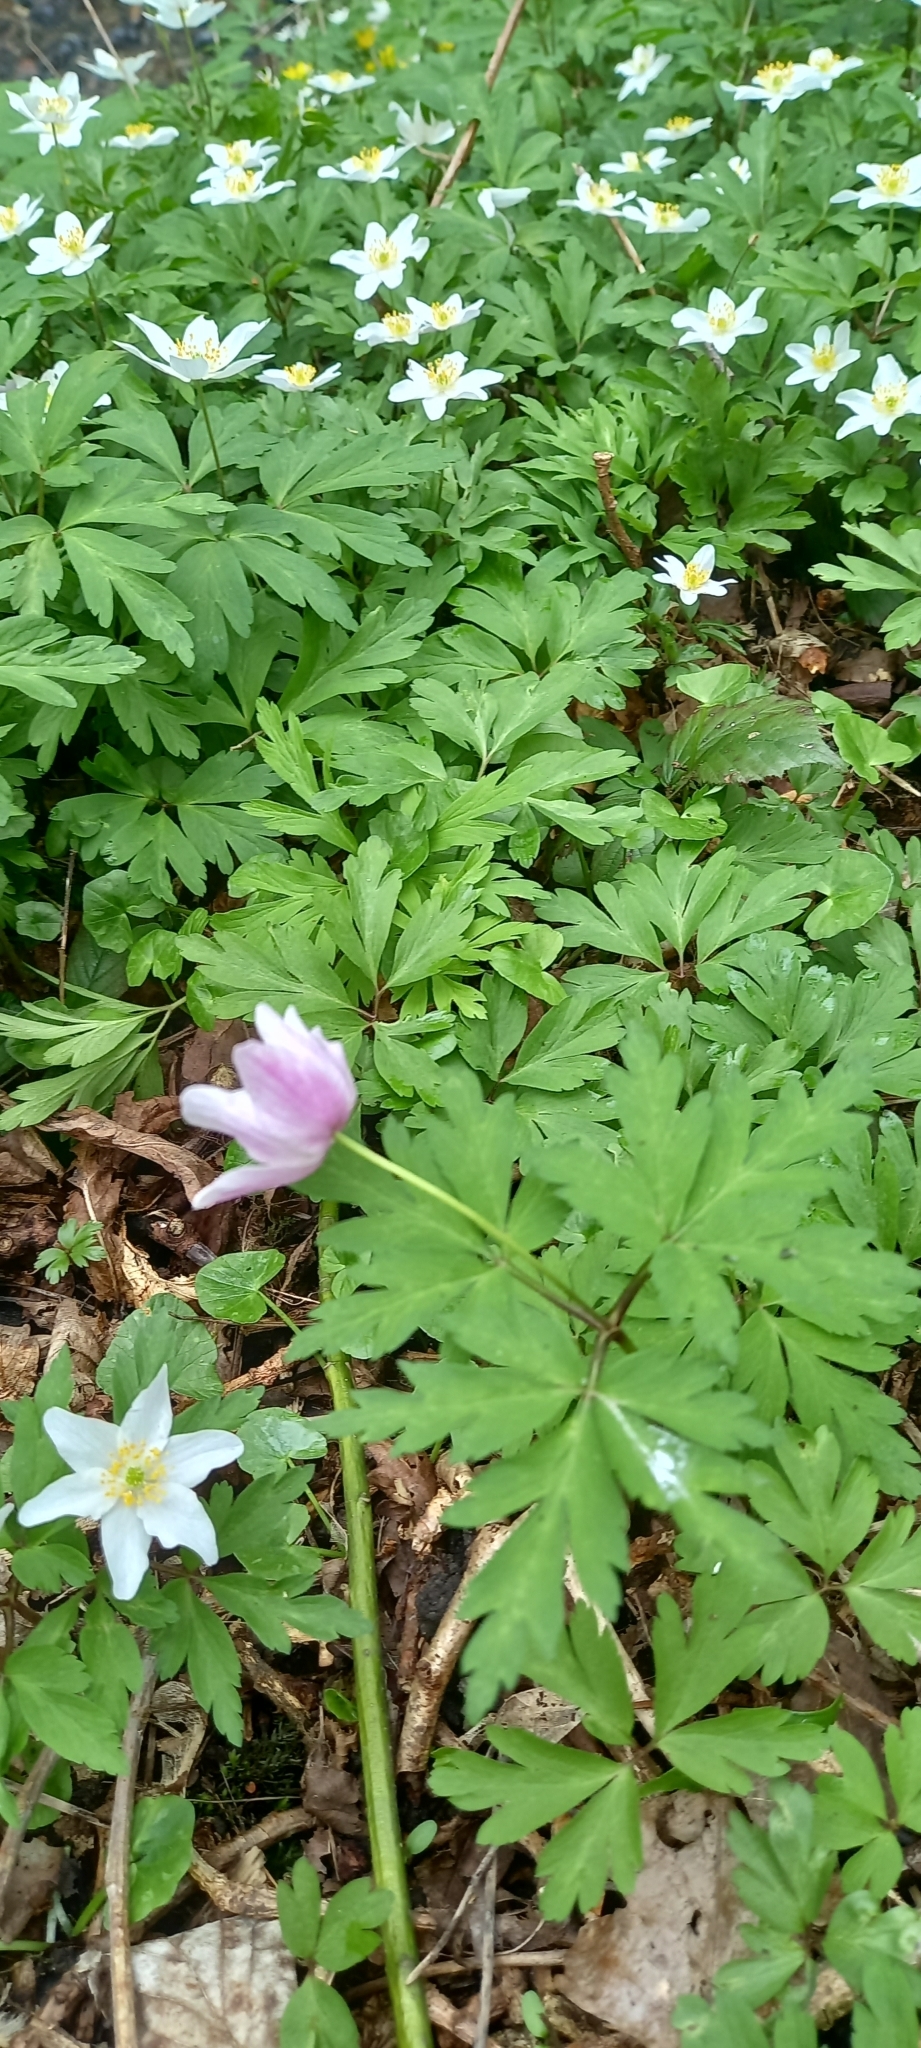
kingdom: Plantae
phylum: Tracheophyta
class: Magnoliopsida
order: Ranunculales
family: Ranunculaceae
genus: Anemone
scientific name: Anemone nemorosa
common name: Wood anemone
